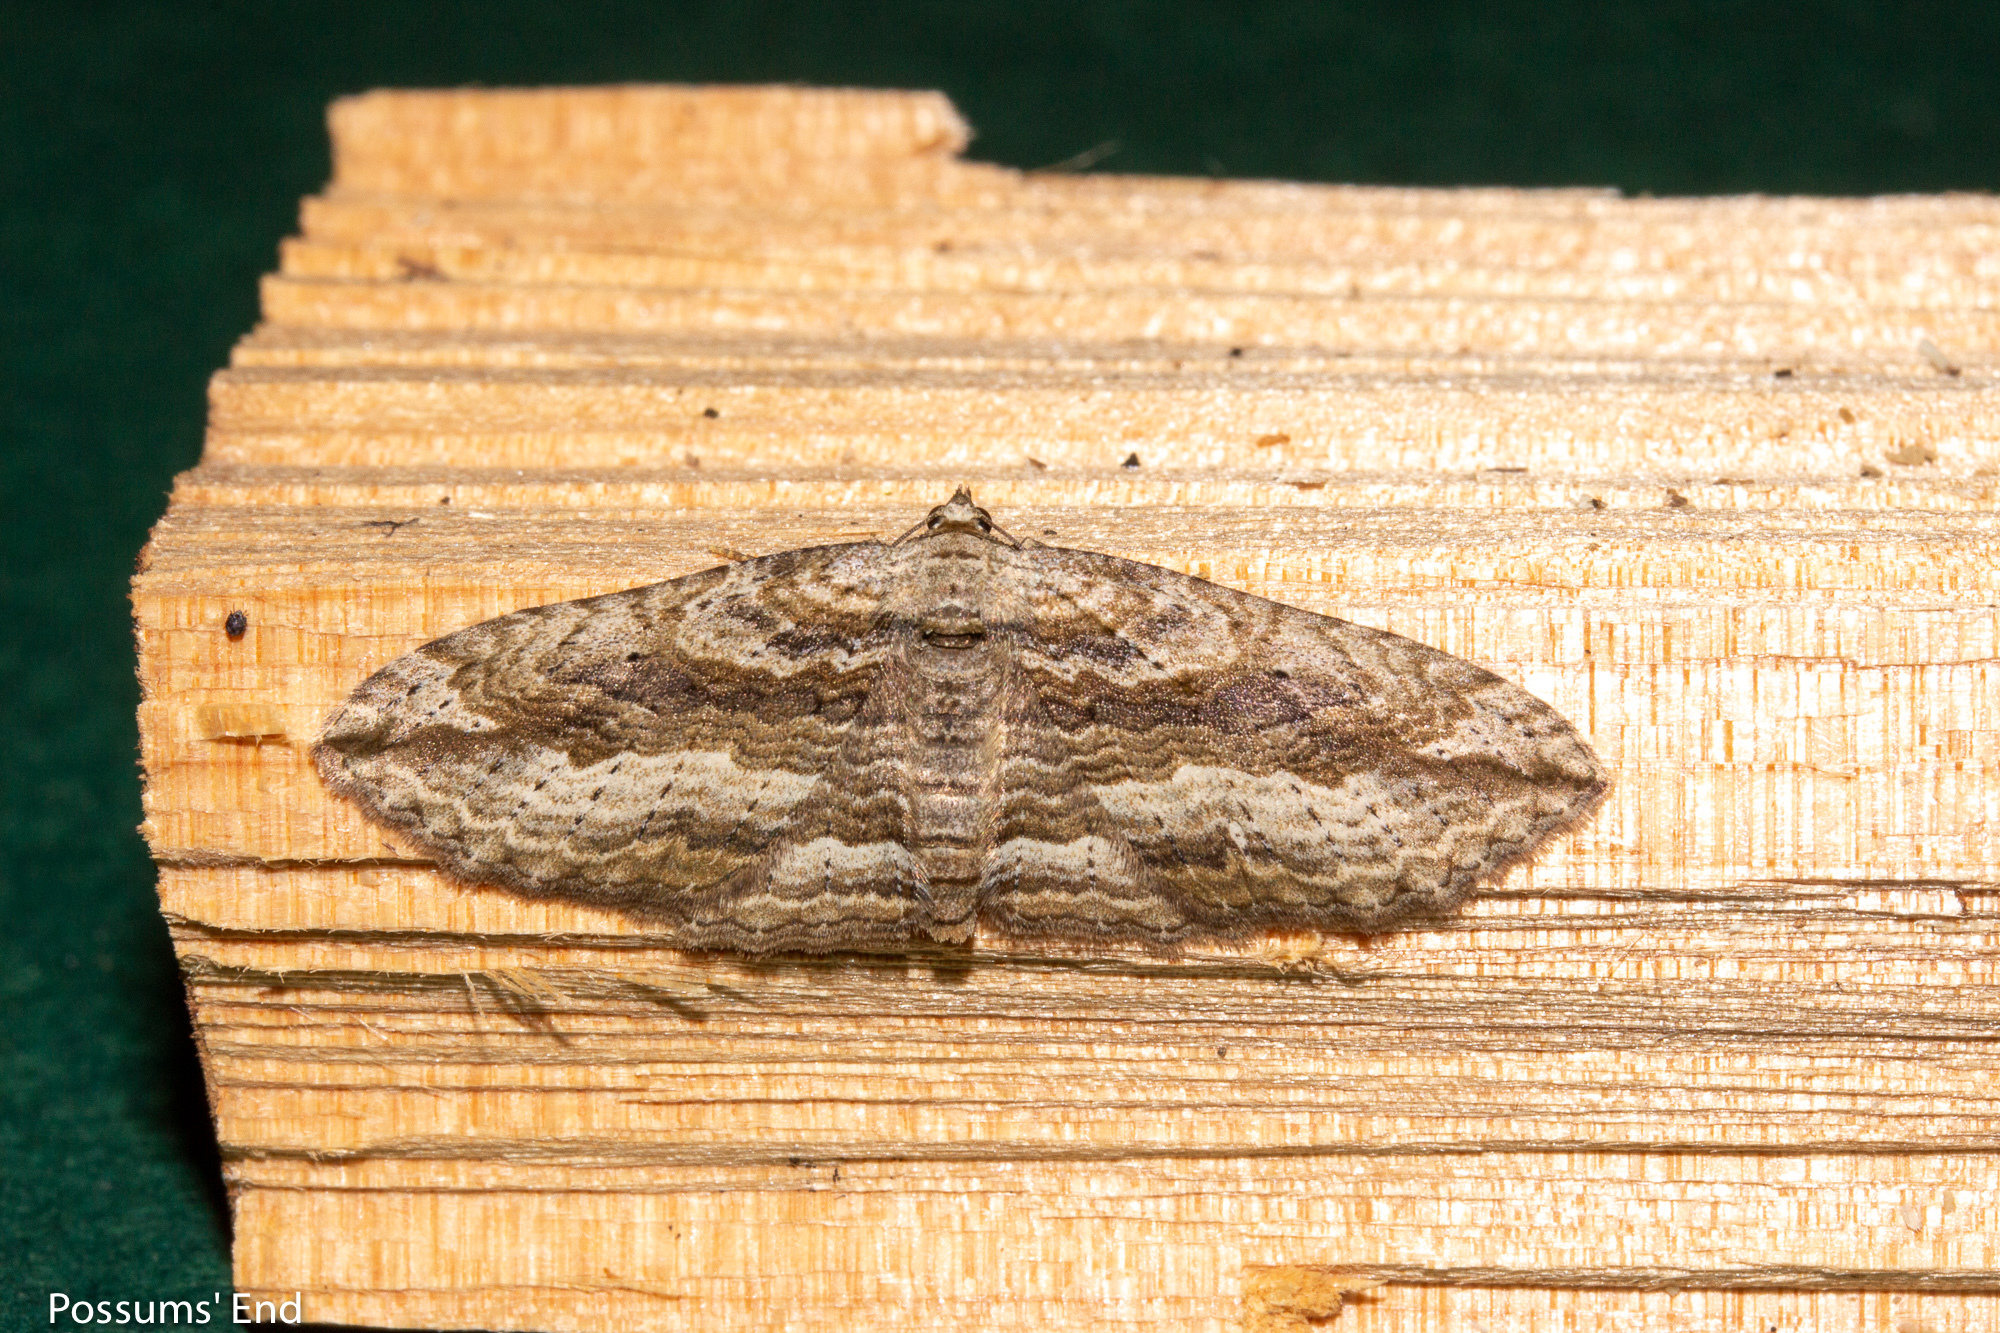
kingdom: Animalia
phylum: Arthropoda
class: Insecta
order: Lepidoptera
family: Geometridae
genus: Austrocidaria
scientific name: Austrocidaria gobiata
